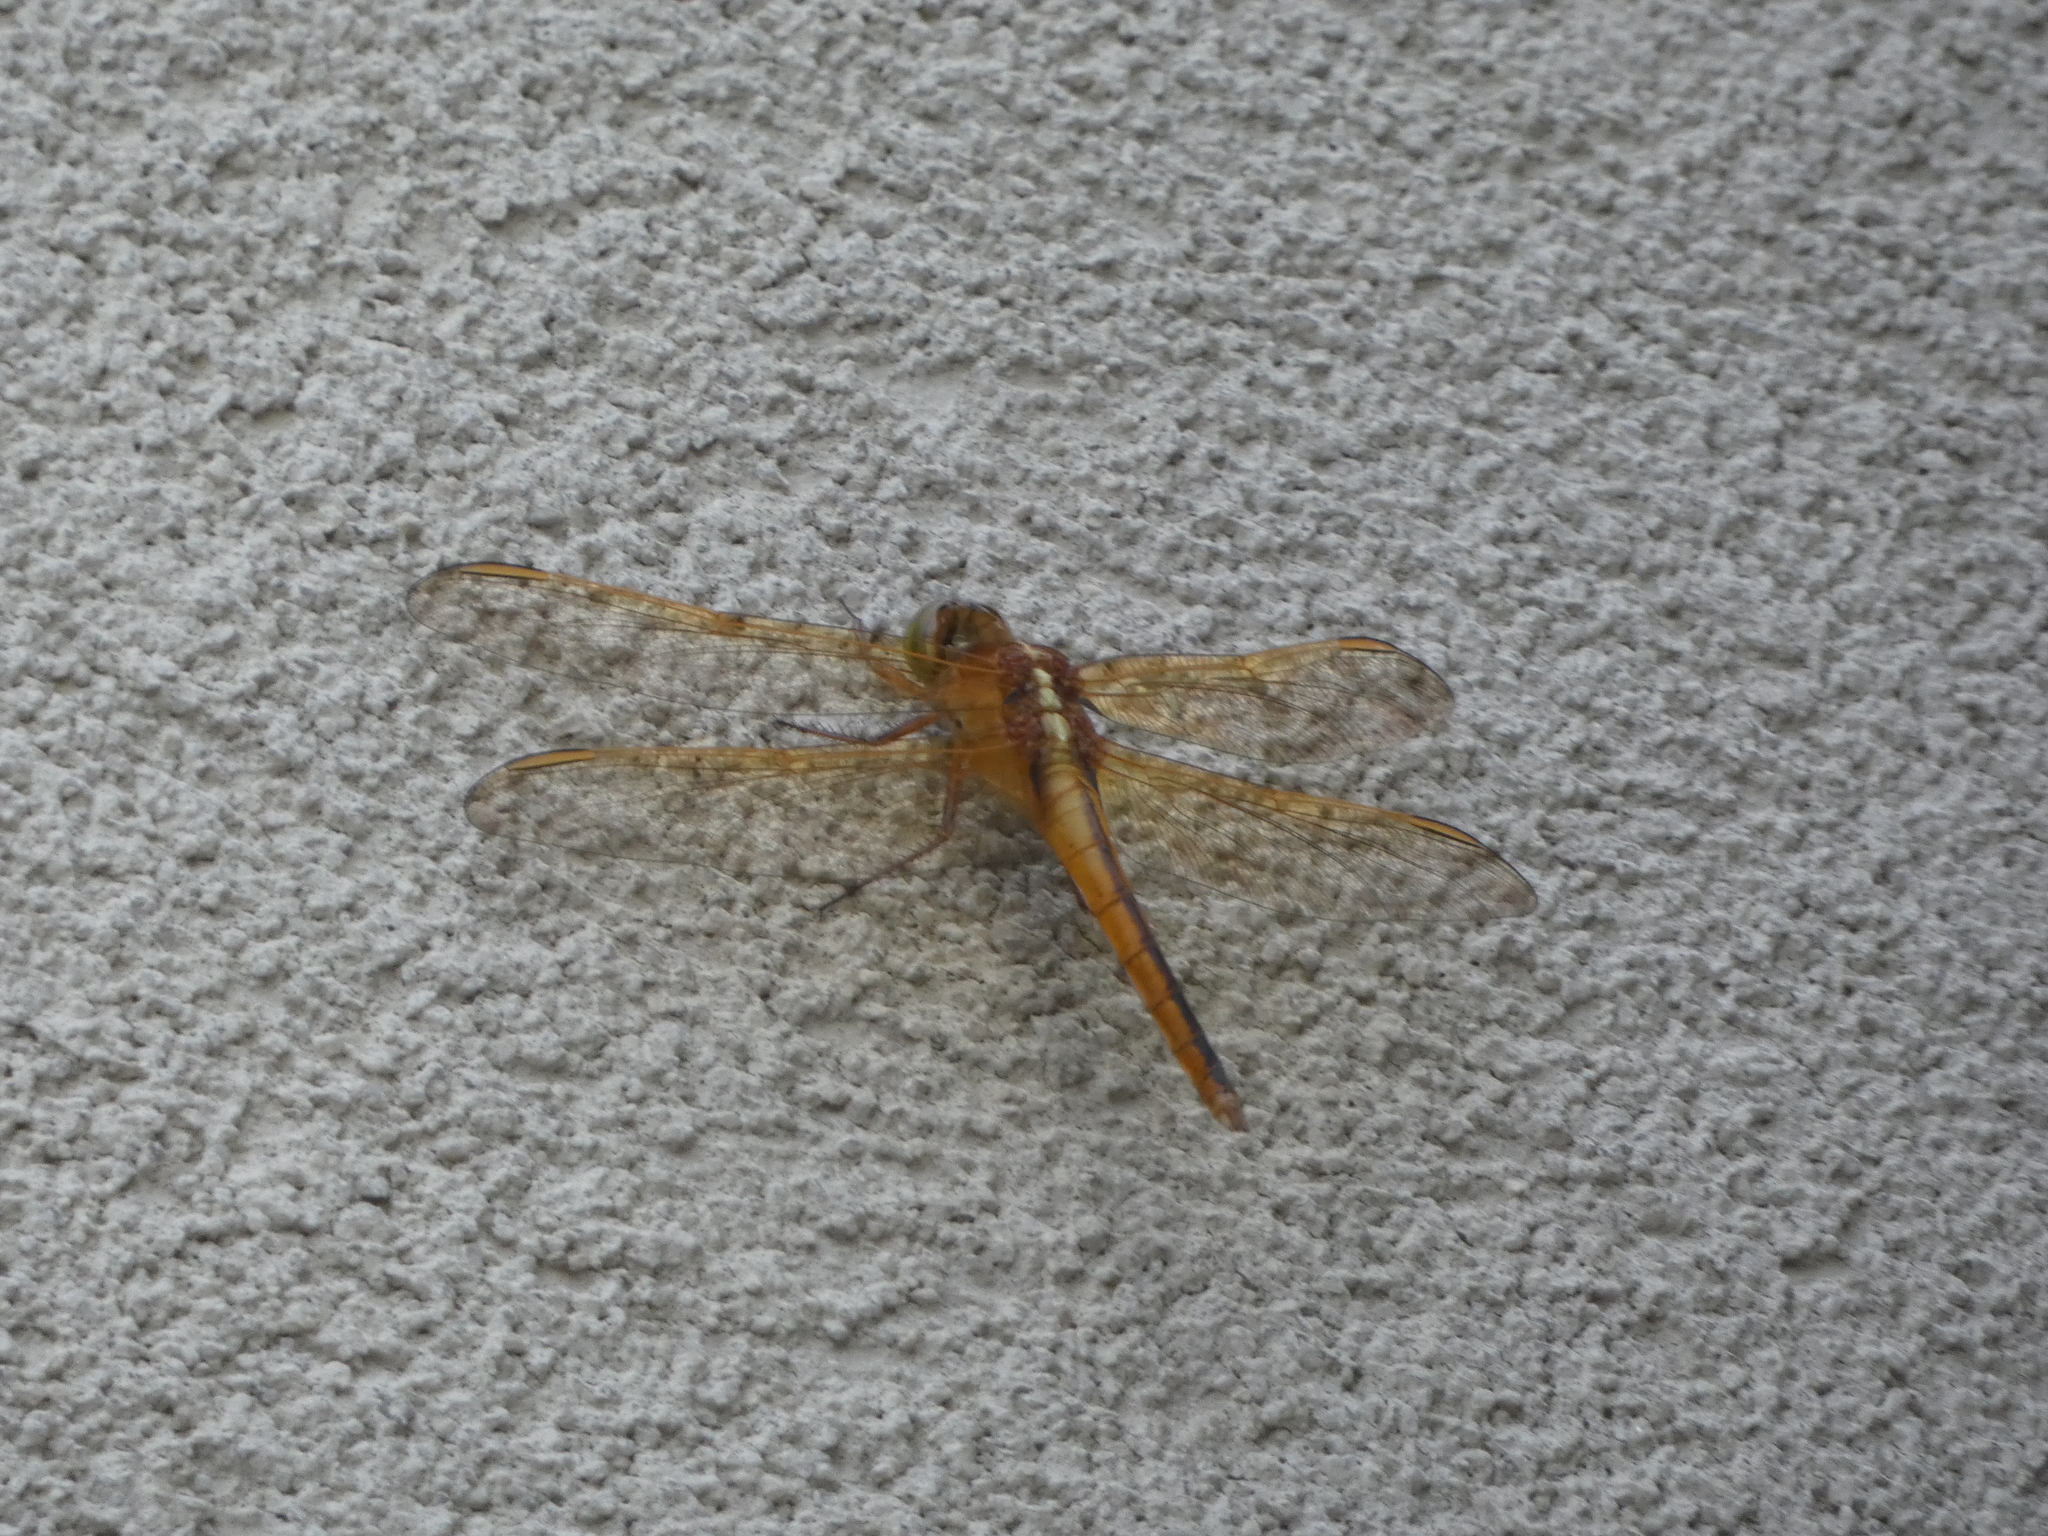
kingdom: Animalia
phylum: Arthropoda
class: Insecta
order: Odonata
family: Libellulidae
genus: Libellula
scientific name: Libellula needhami
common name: Needham's skimmer
